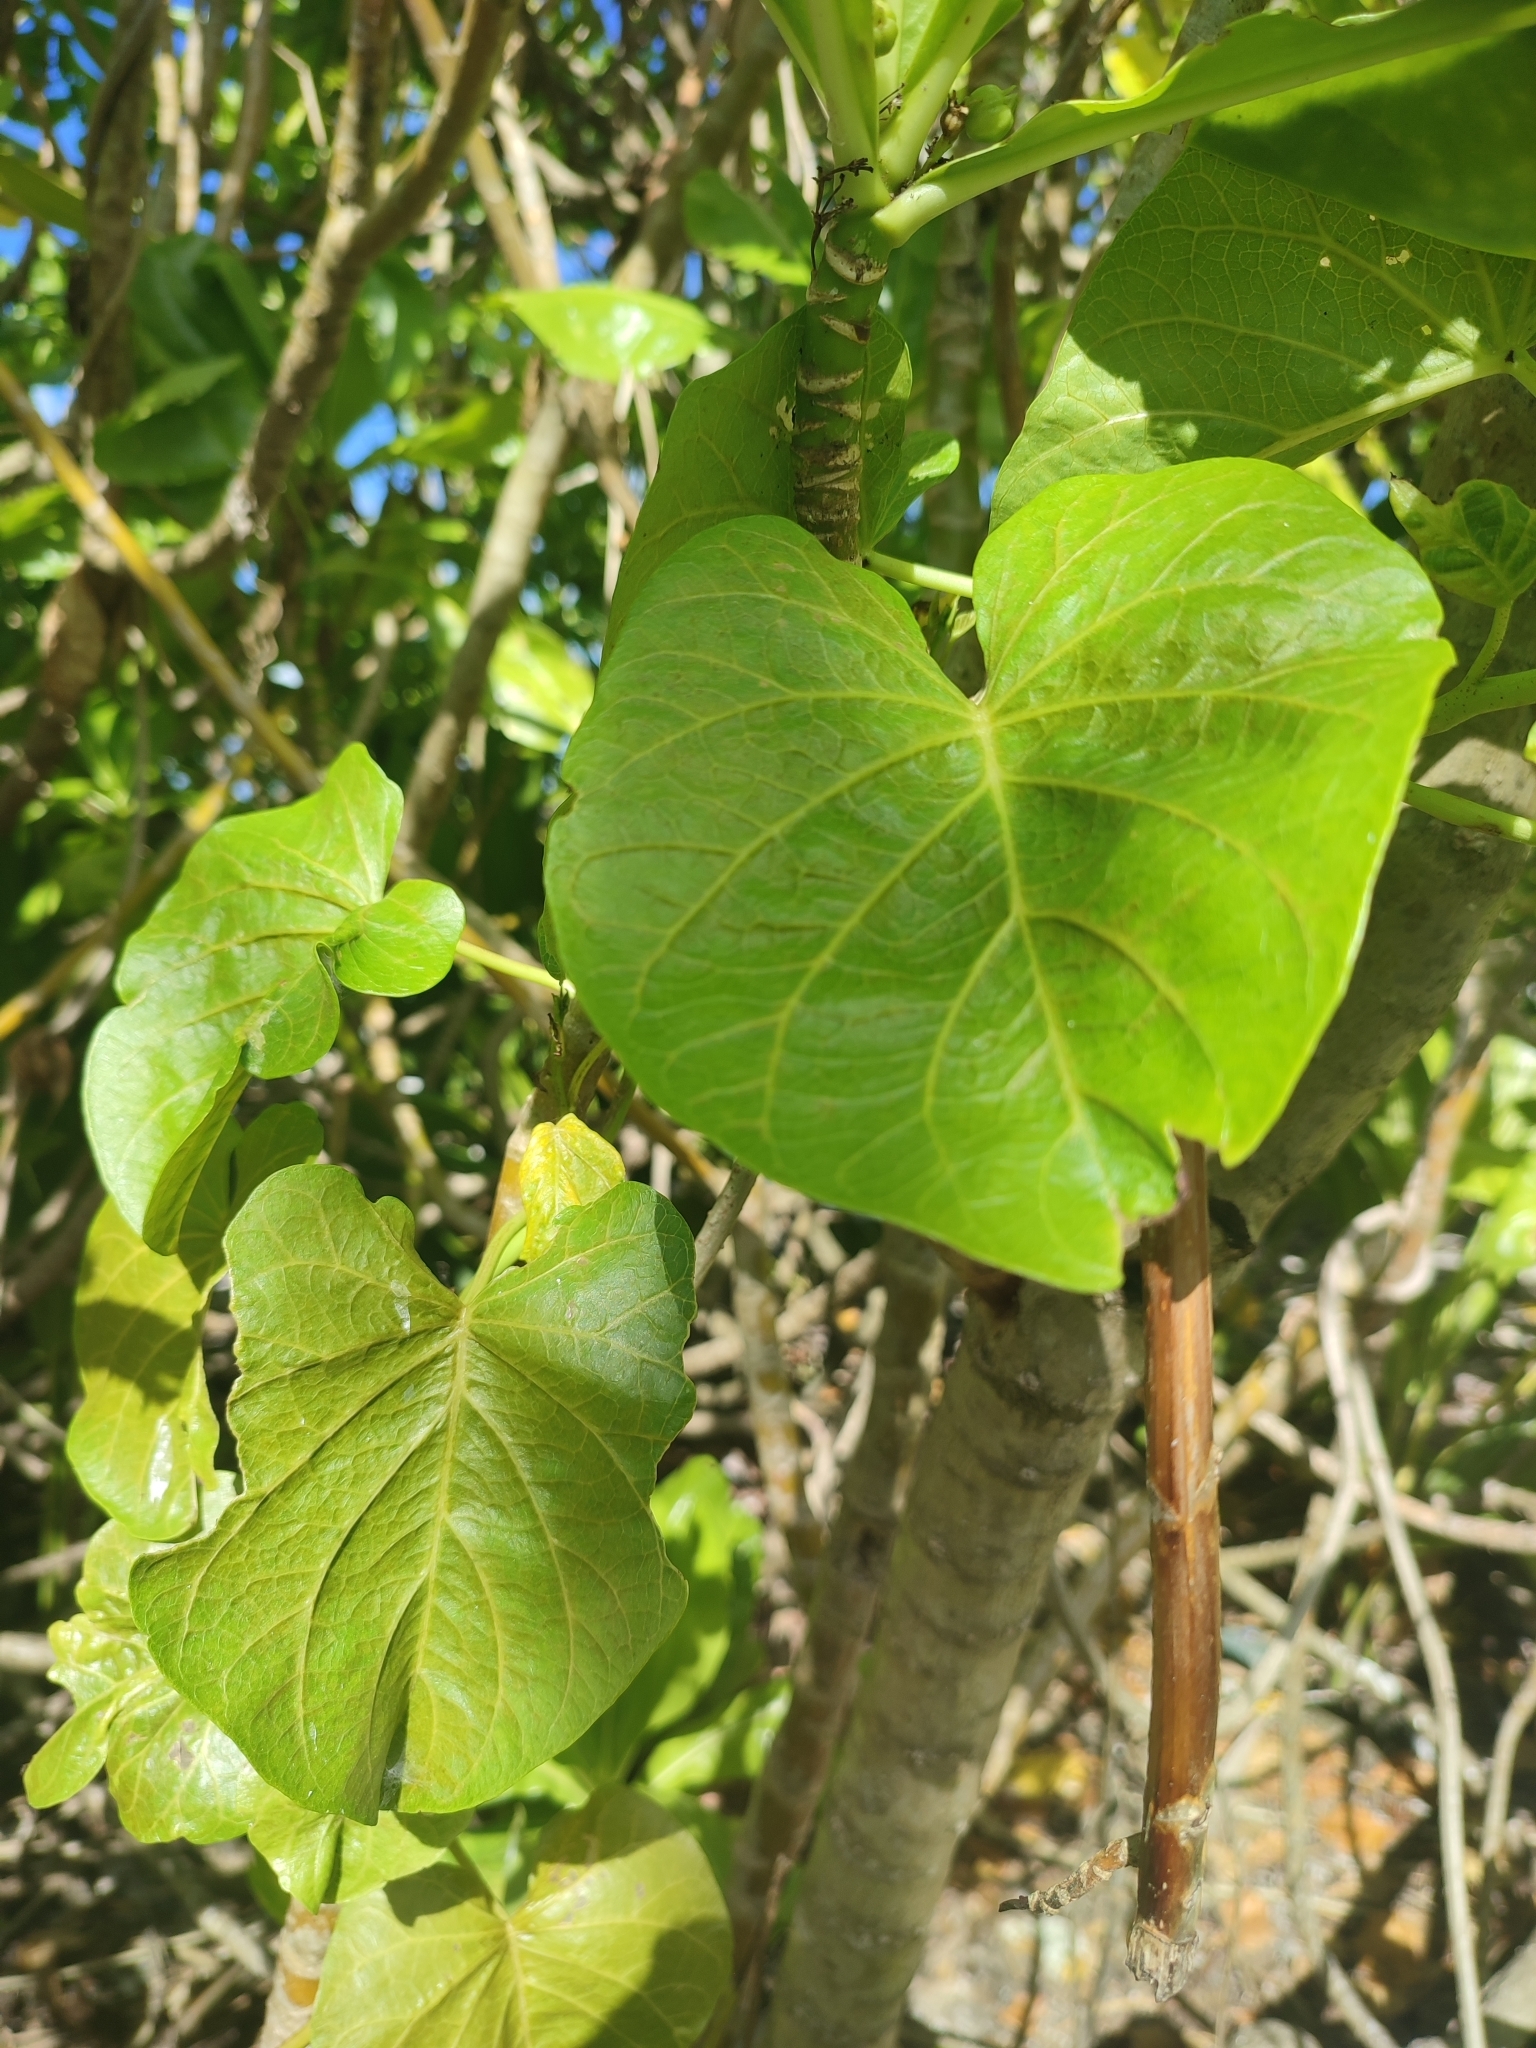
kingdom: Plantae
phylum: Tracheophyta
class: Magnoliopsida
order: Solanales
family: Convolvulaceae
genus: Ipomoea
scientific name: Ipomoea violacea
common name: Beach moonflower
